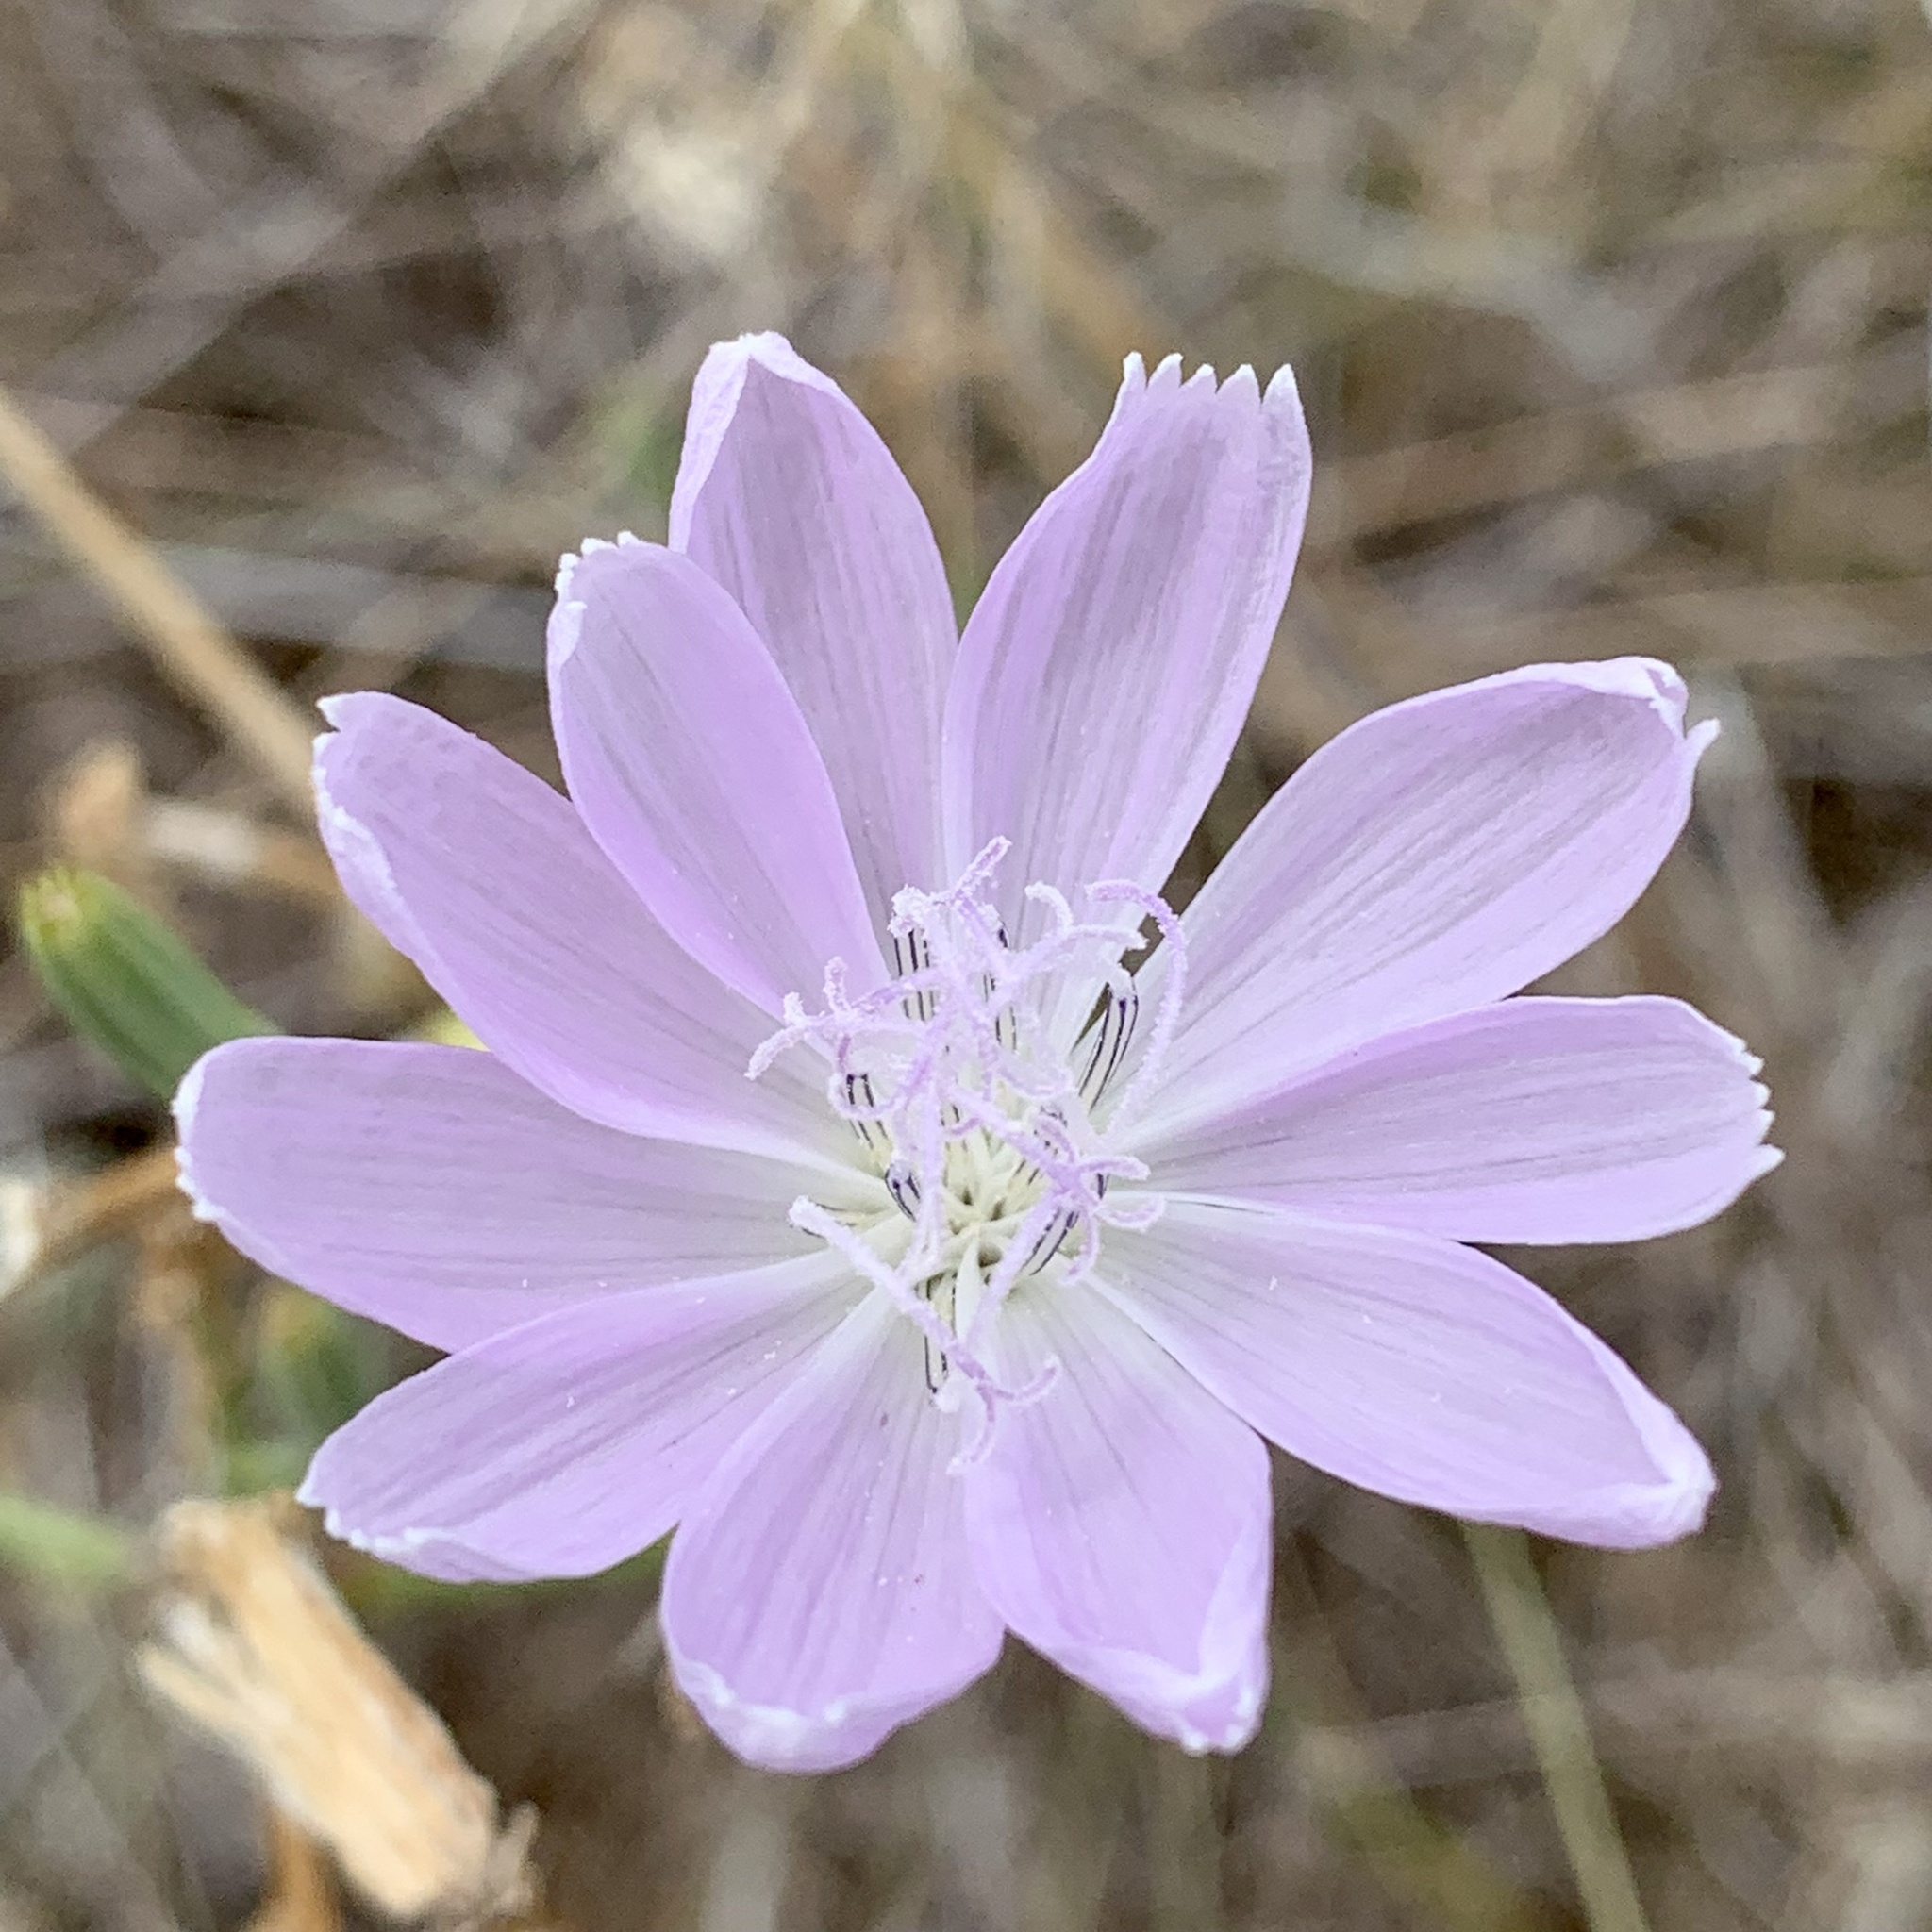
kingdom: Plantae
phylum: Tracheophyta
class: Magnoliopsida
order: Asterales
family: Asteraceae
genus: Lygodesmia
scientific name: Lygodesmia texana
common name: Texas skeleton-plant
